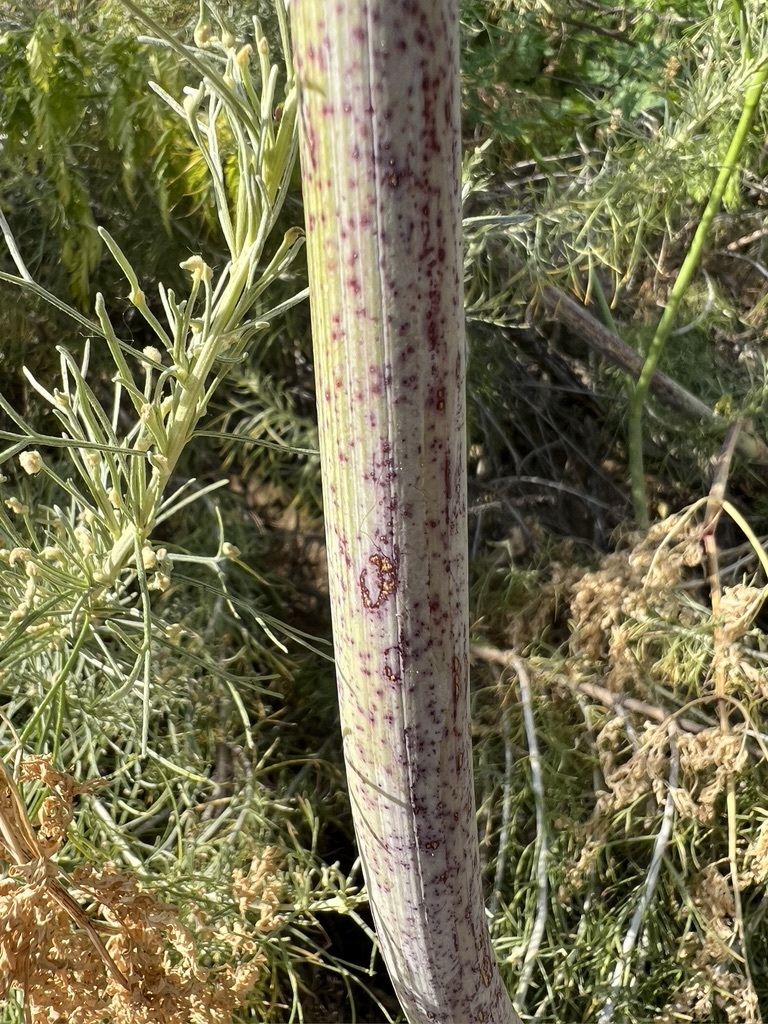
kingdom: Plantae
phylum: Tracheophyta
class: Magnoliopsida
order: Apiales
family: Apiaceae
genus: Conium
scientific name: Conium maculatum
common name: Hemlock
